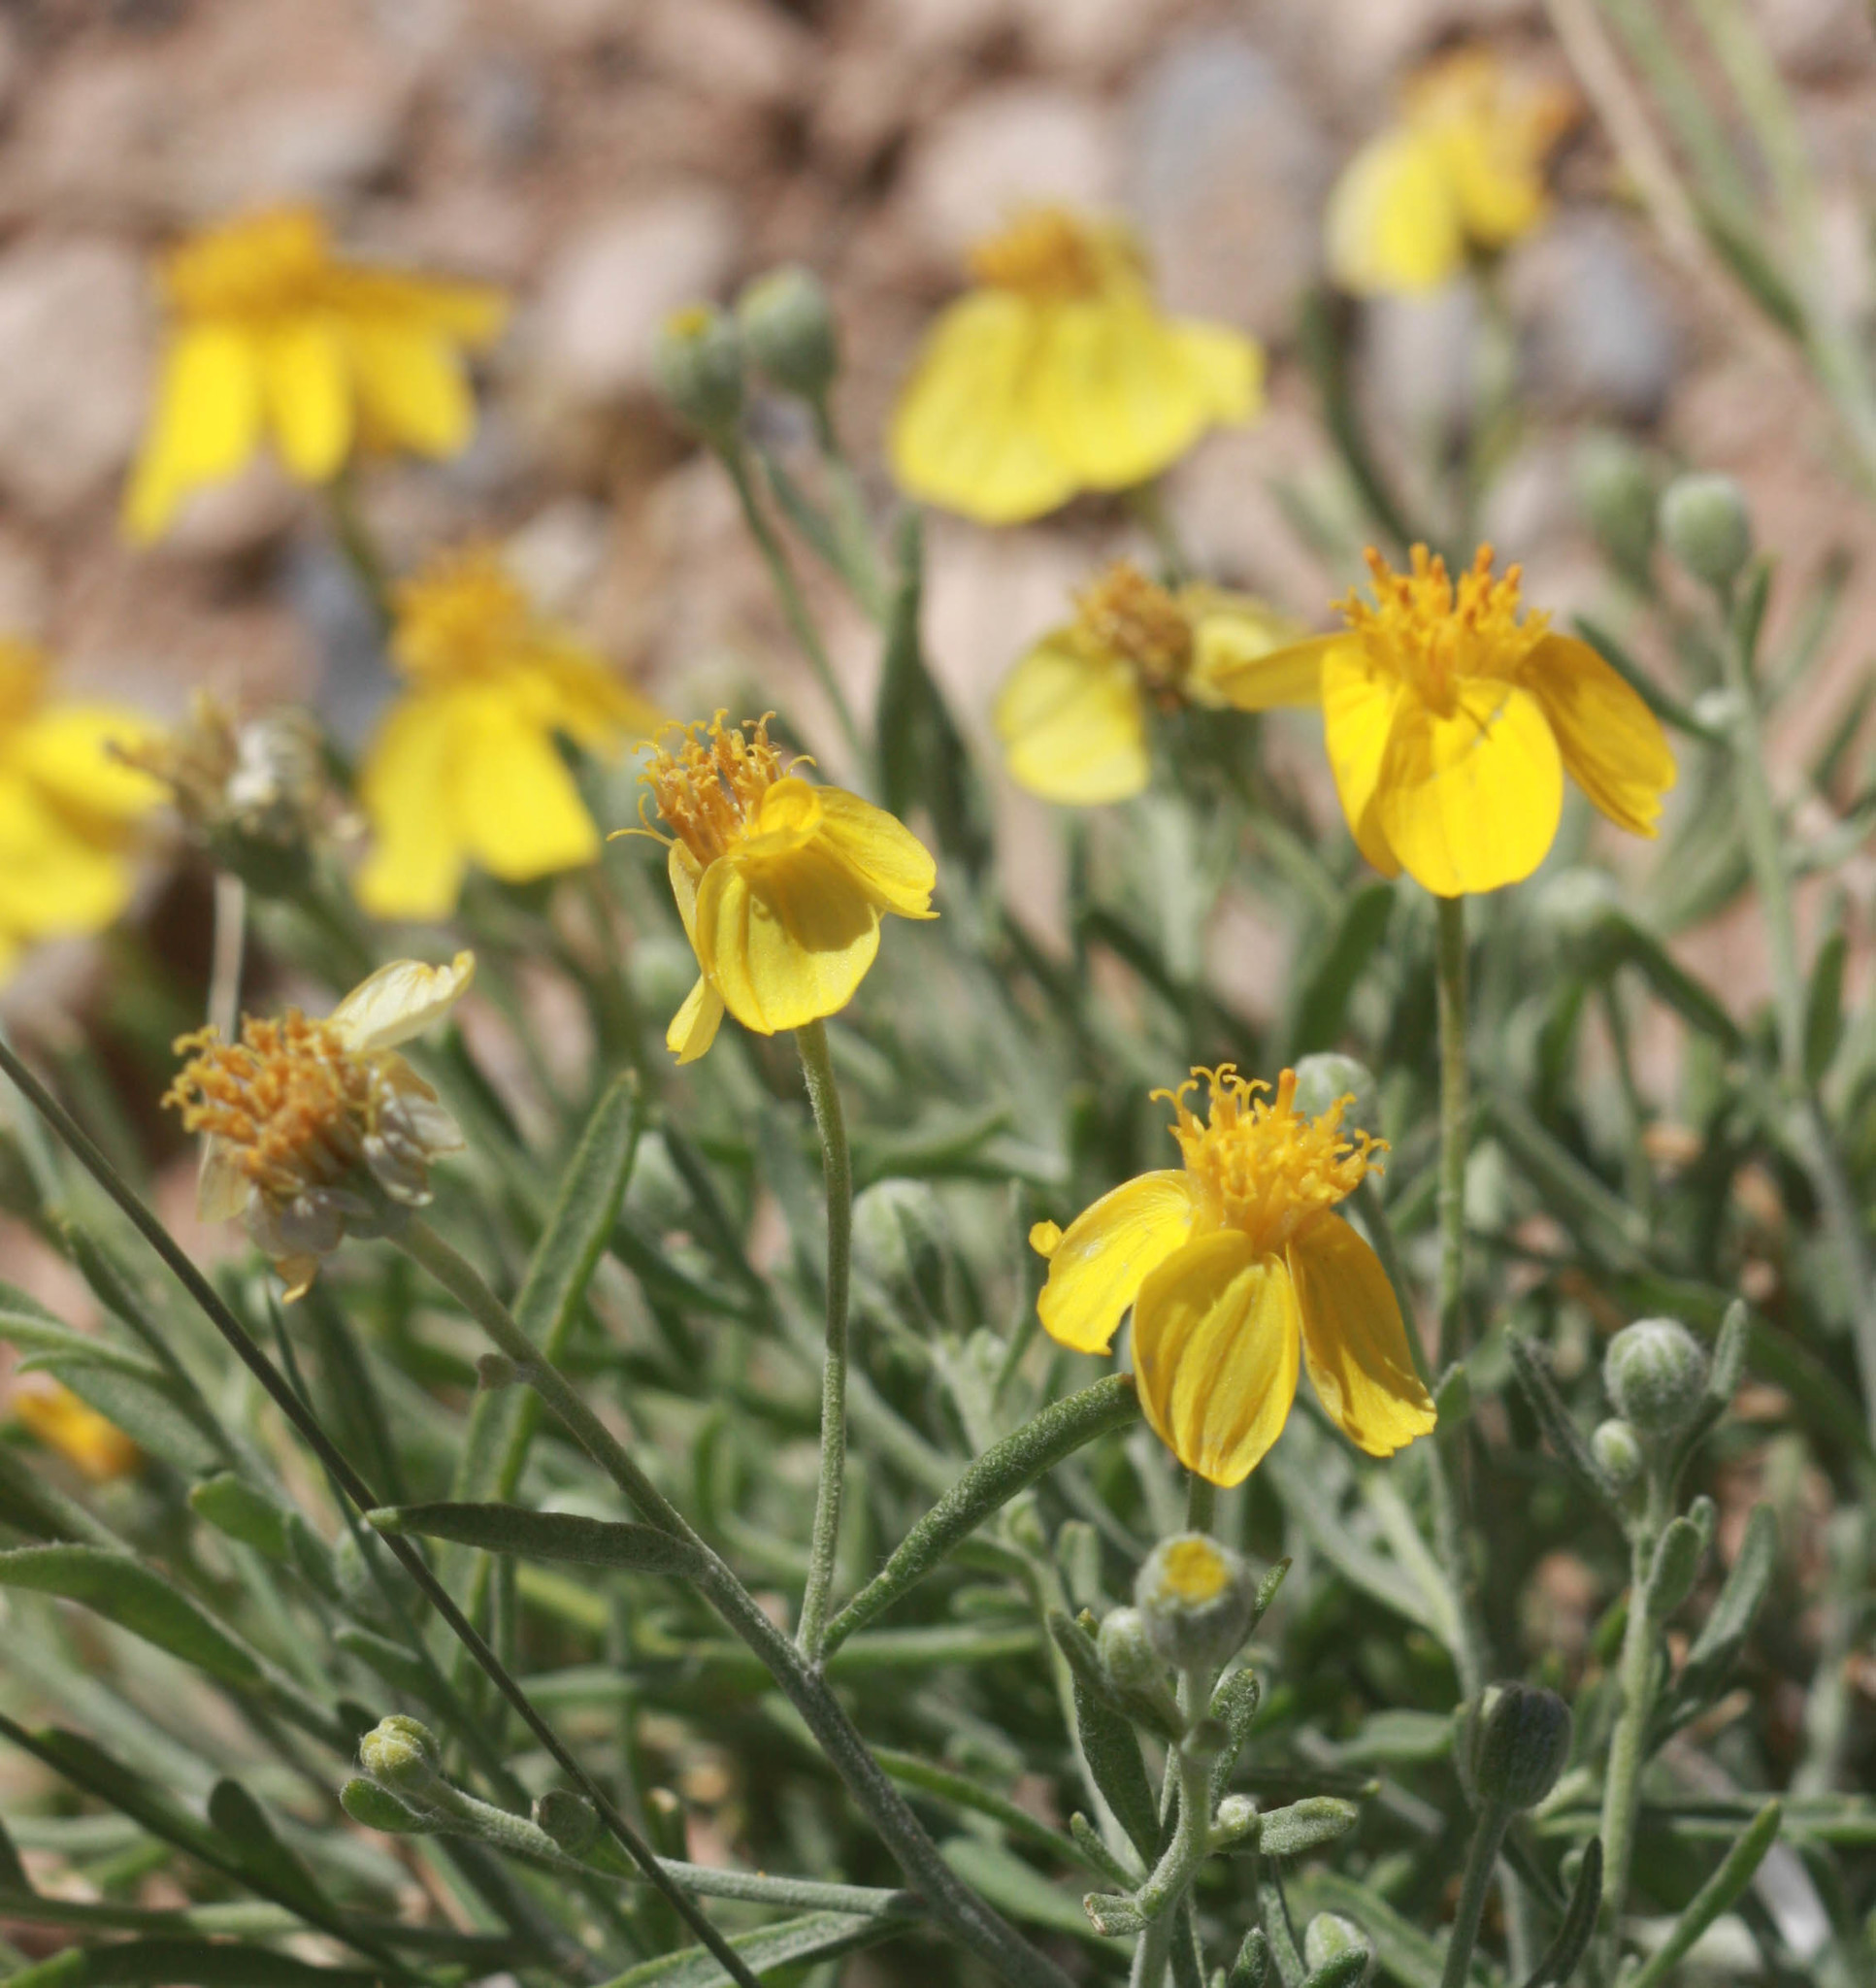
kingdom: Plantae
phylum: Tracheophyta
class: Magnoliopsida
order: Asterales
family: Asteraceae
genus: Psilostrophe
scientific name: Psilostrophe cooperi
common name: White-stem paper-flower
